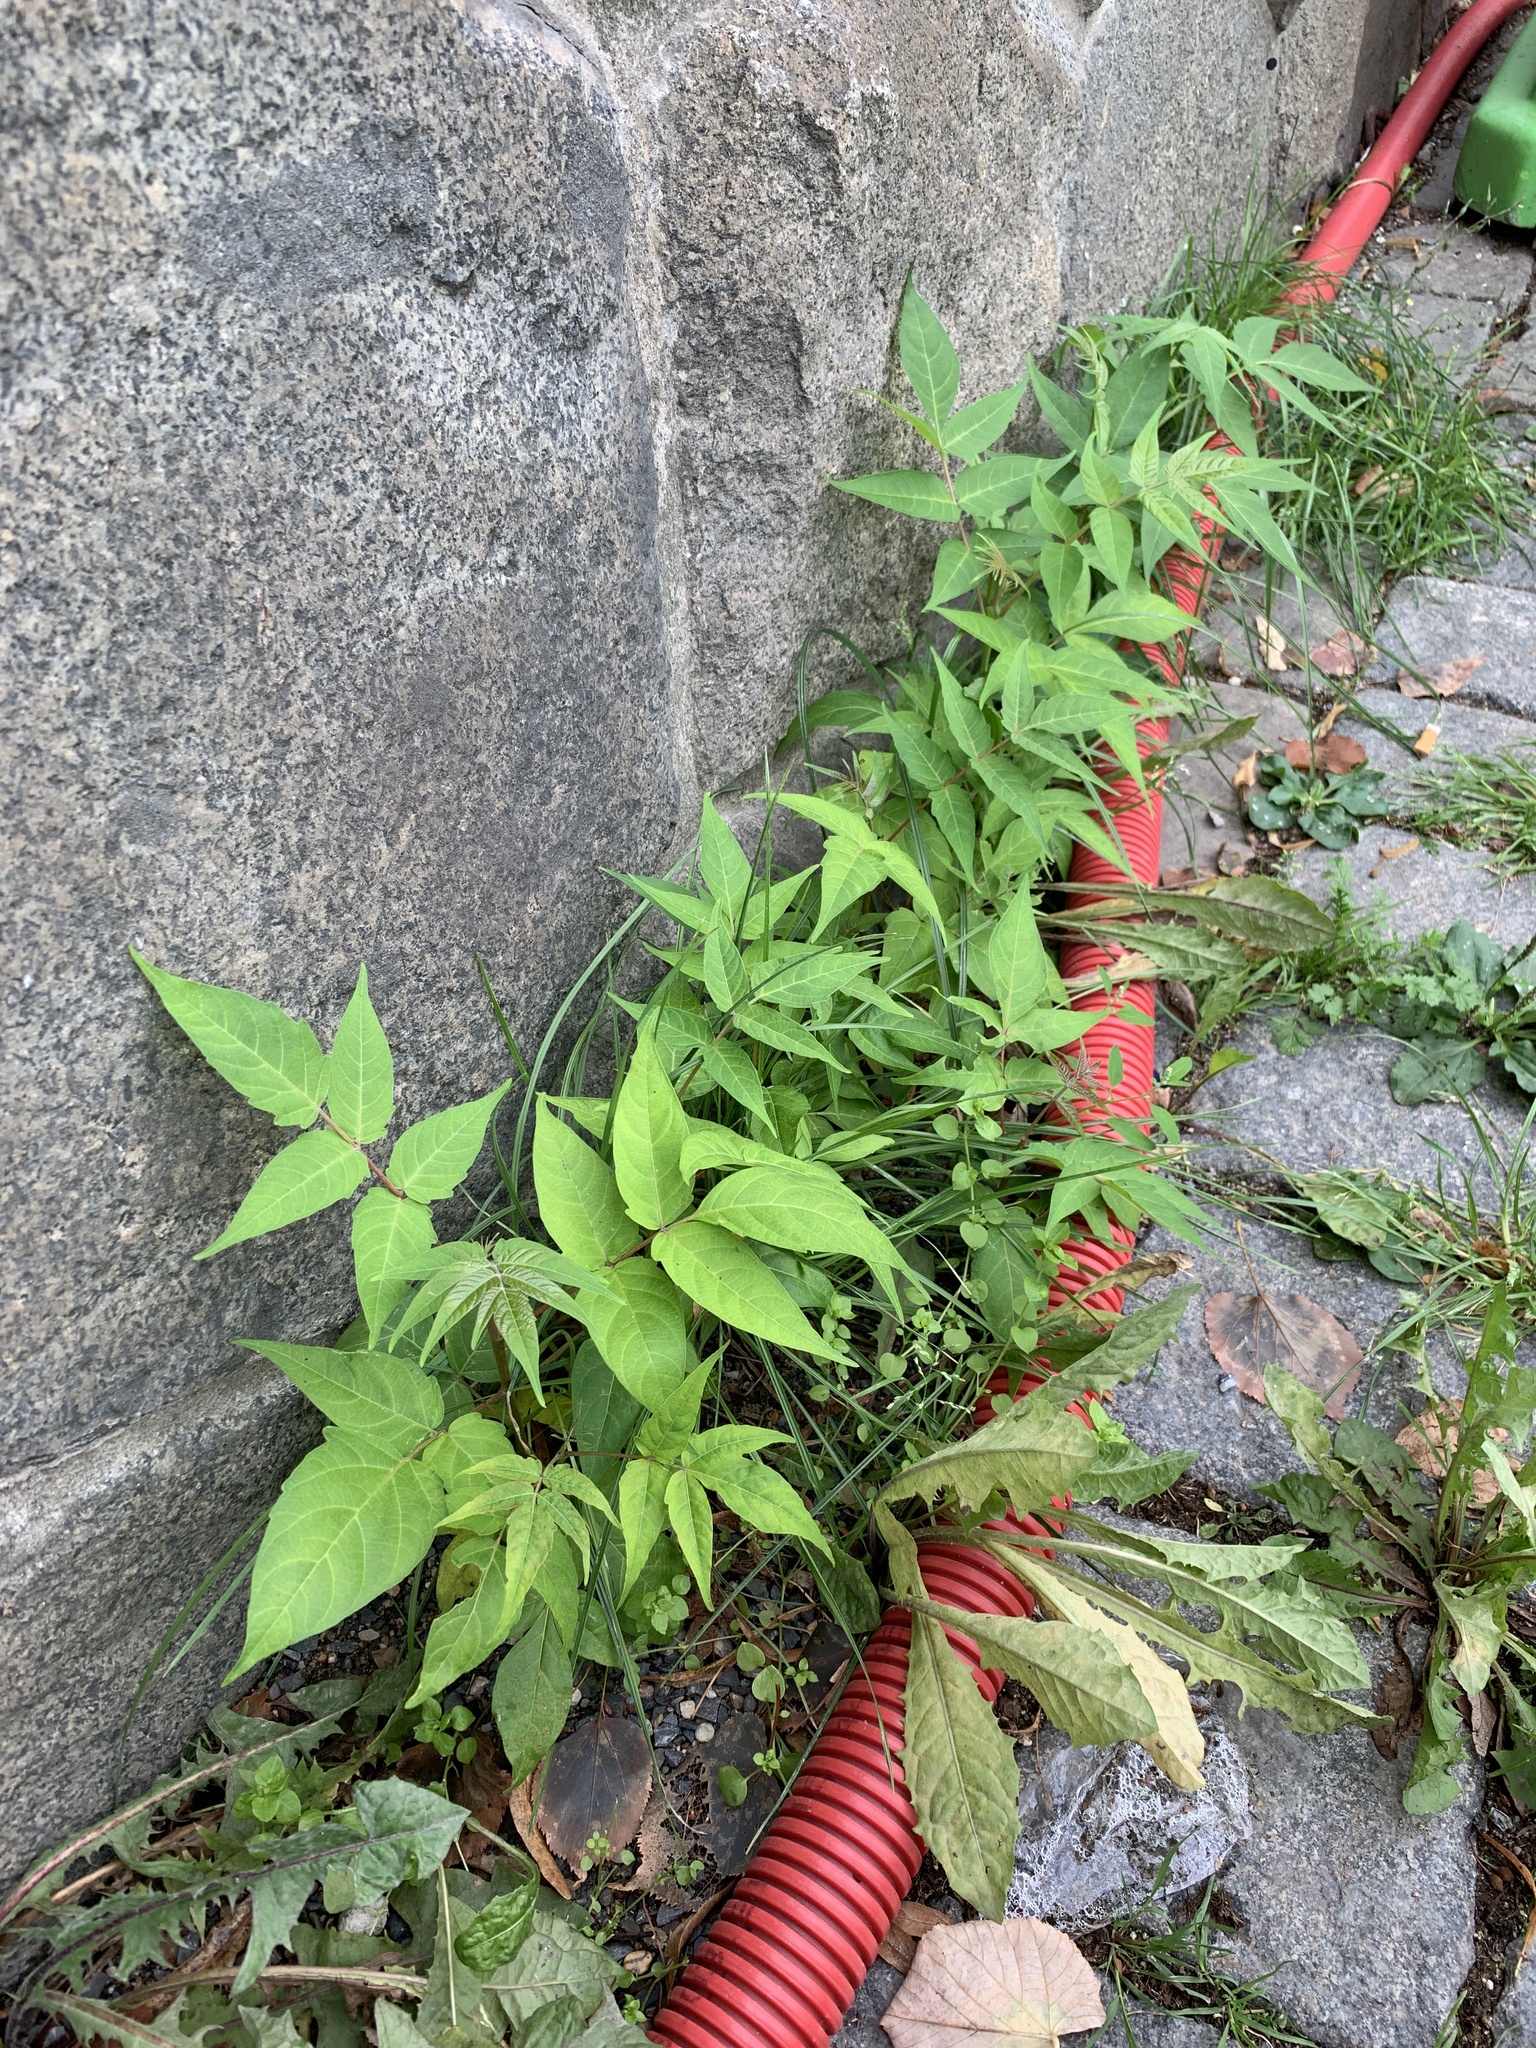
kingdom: Plantae
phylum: Tracheophyta
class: Magnoliopsida
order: Sapindales
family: Simaroubaceae
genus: Ailanthus
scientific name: Ailanthus altissima
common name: Tree-of-heaven
